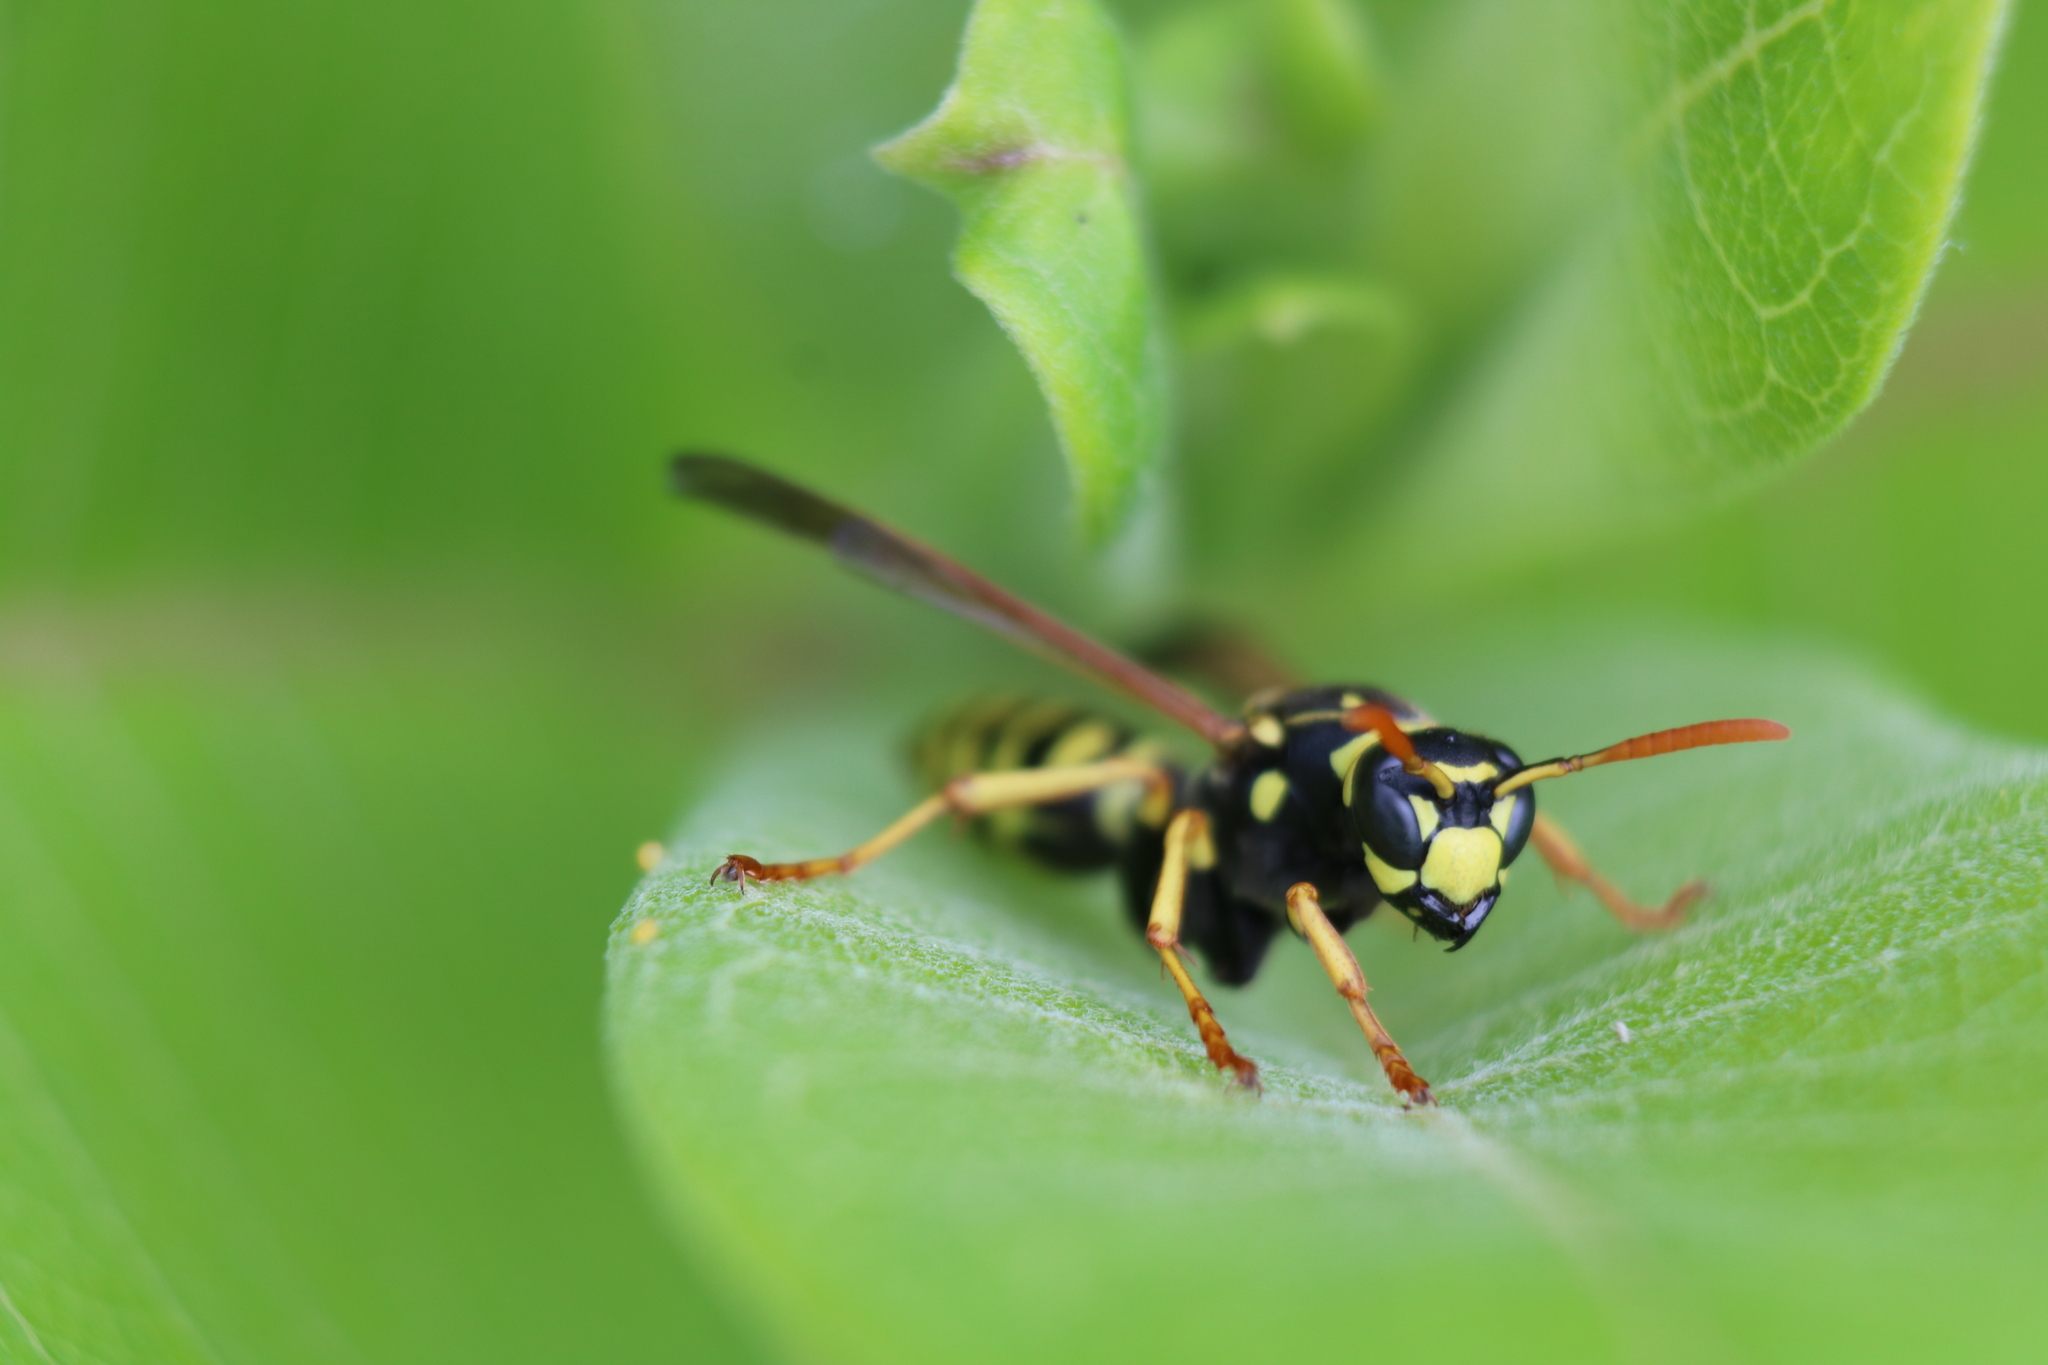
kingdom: Animalia
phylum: Arthropoda
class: Insecta
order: Hymenoptera
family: Eumenidae
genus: Polistes
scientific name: Polistes dominula
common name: Paper wasp
